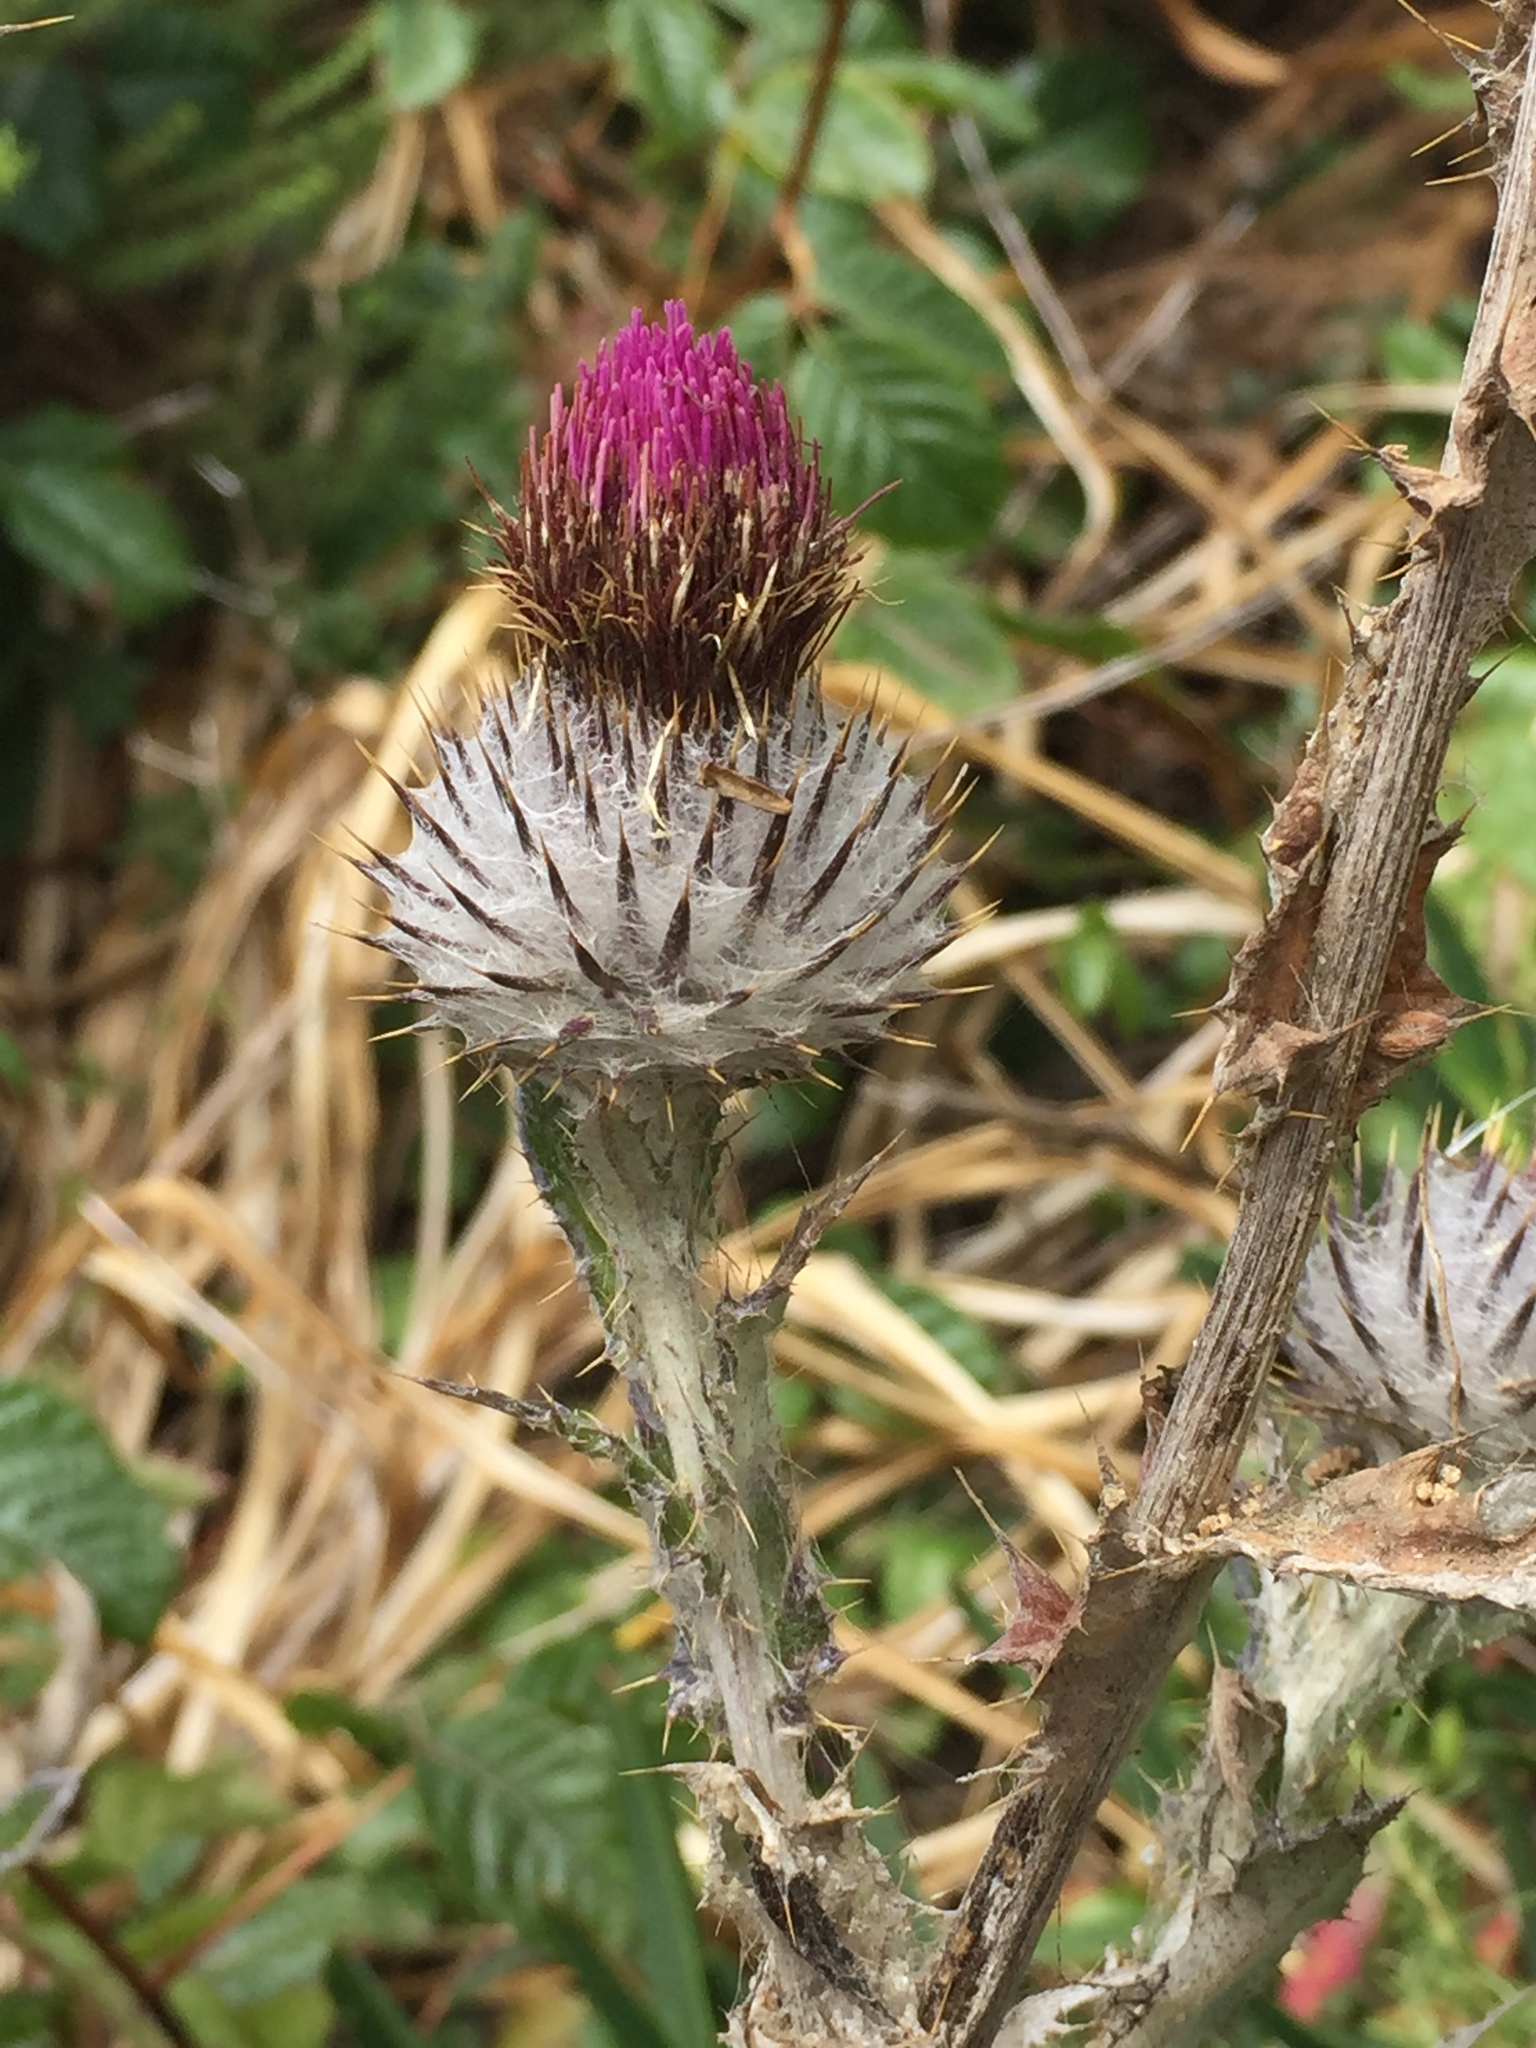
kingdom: Plantae
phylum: Tracheophyta
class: Magnoliopsida
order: Asterales
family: Asteraceae
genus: Cirsium
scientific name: Cirsium occidentale
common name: Western thistle
